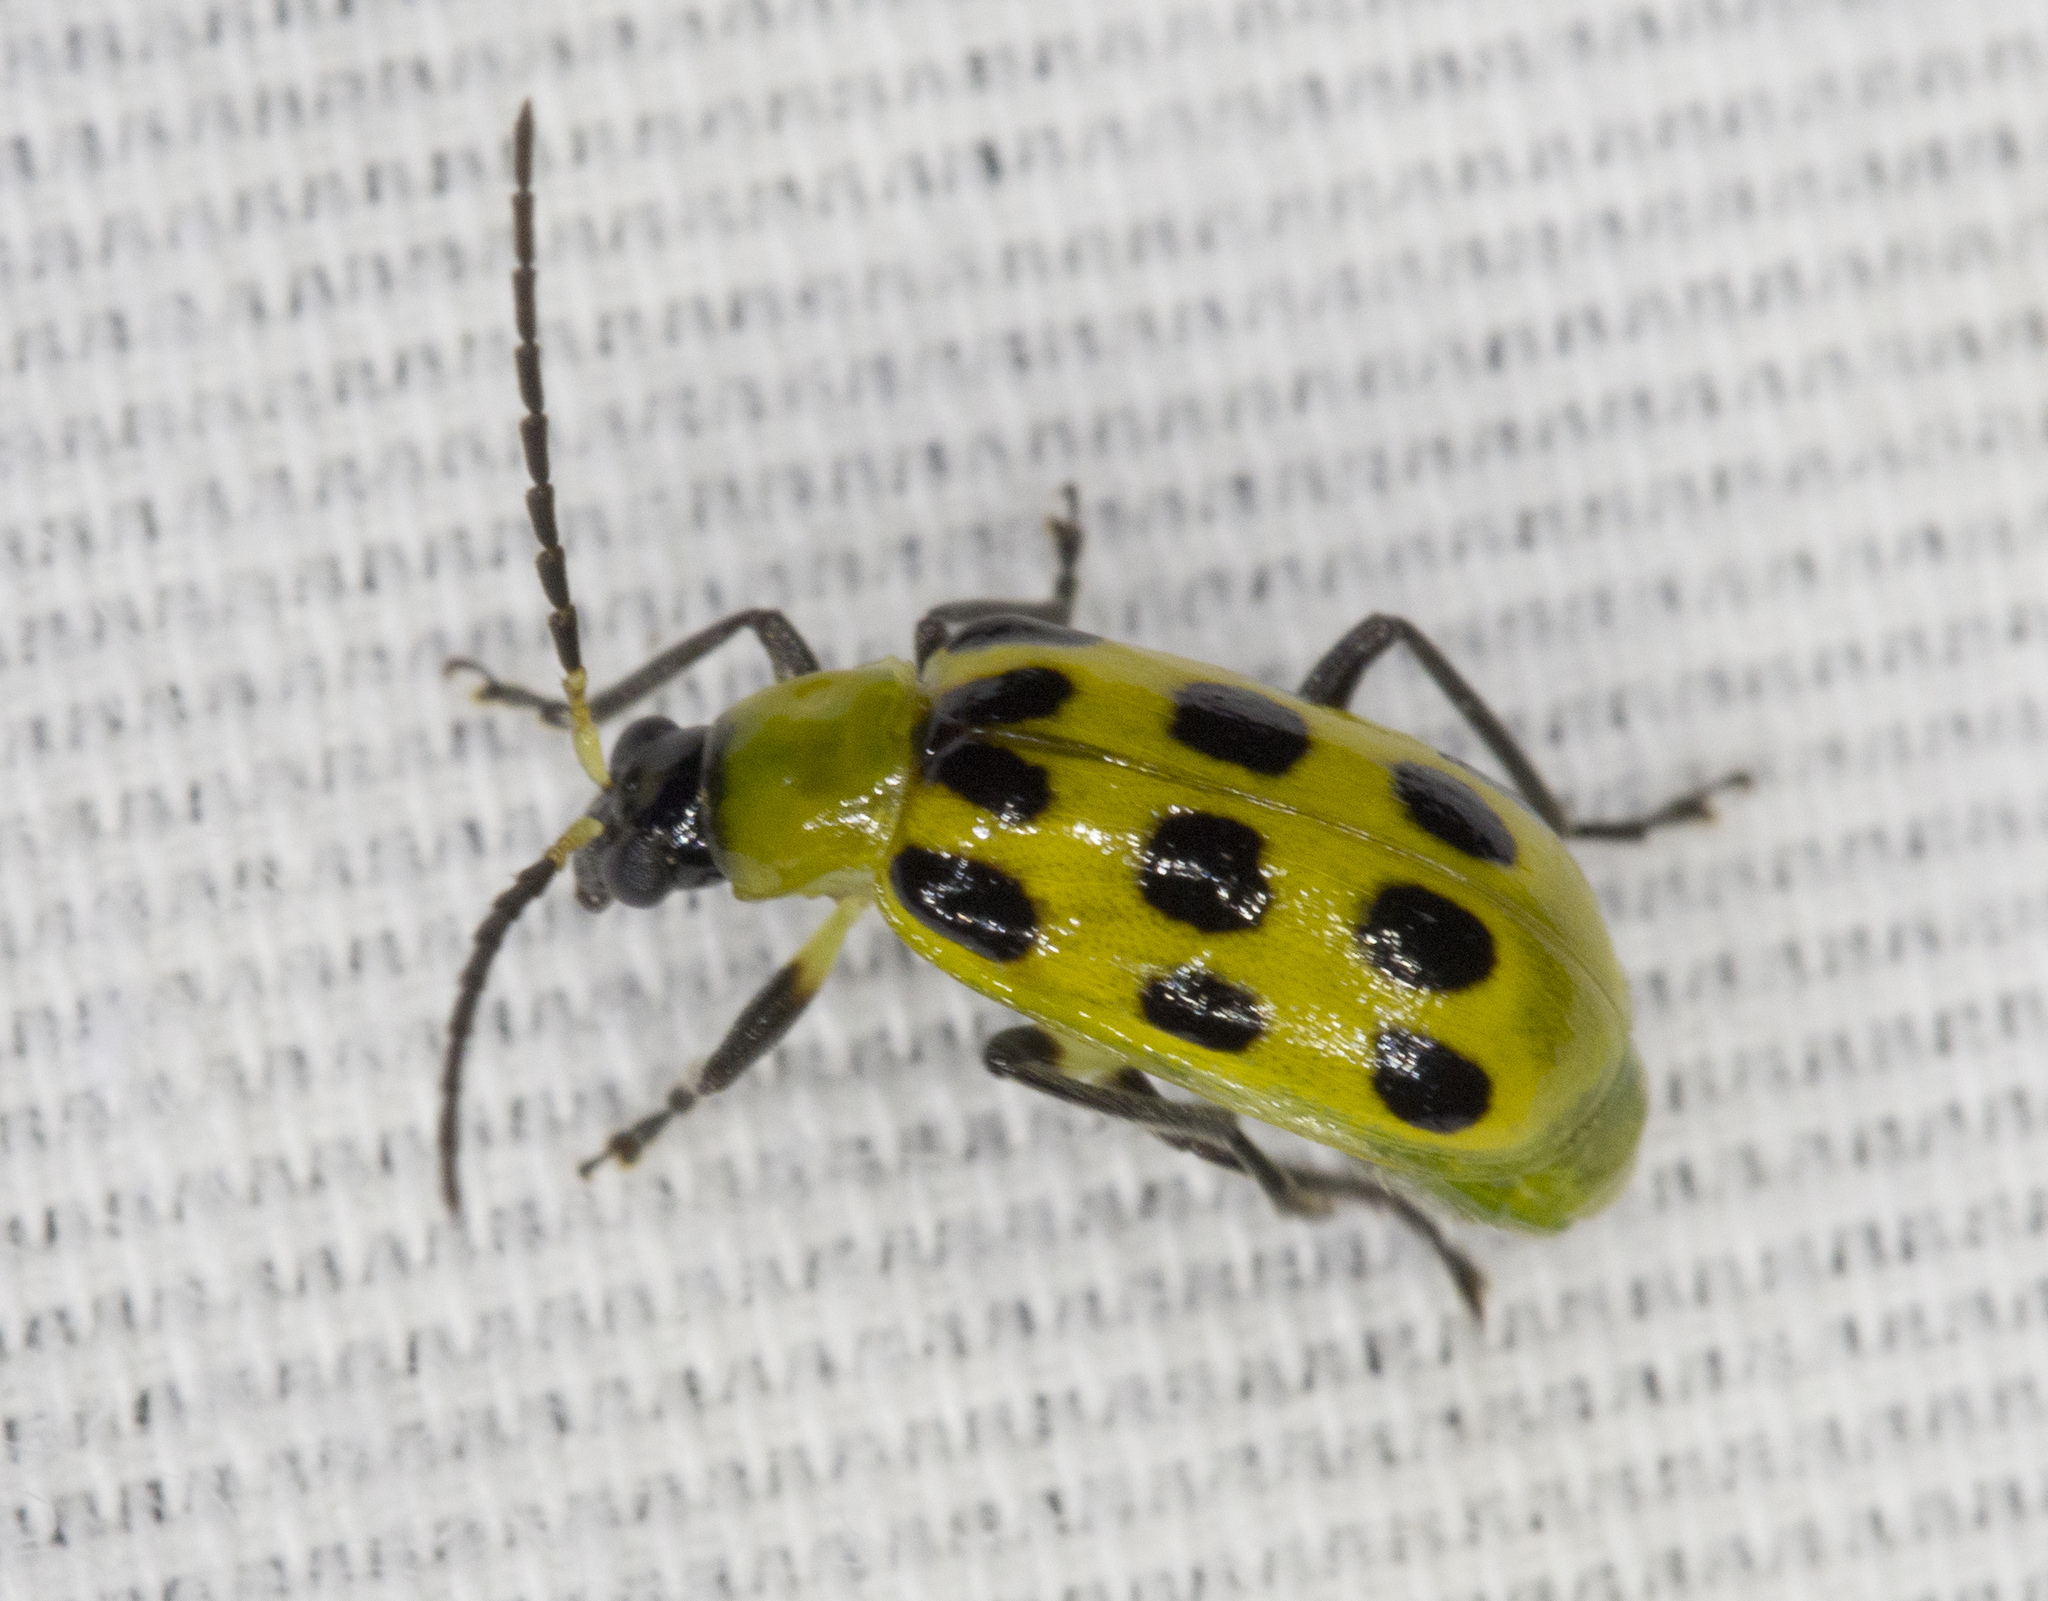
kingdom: Animalia
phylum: Arthropoda
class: Insecta
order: Coleoptera
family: Chrysomelidae
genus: Diabrotica
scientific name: Diabrotica undecimpunctata
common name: Spotted cucumber beetle
